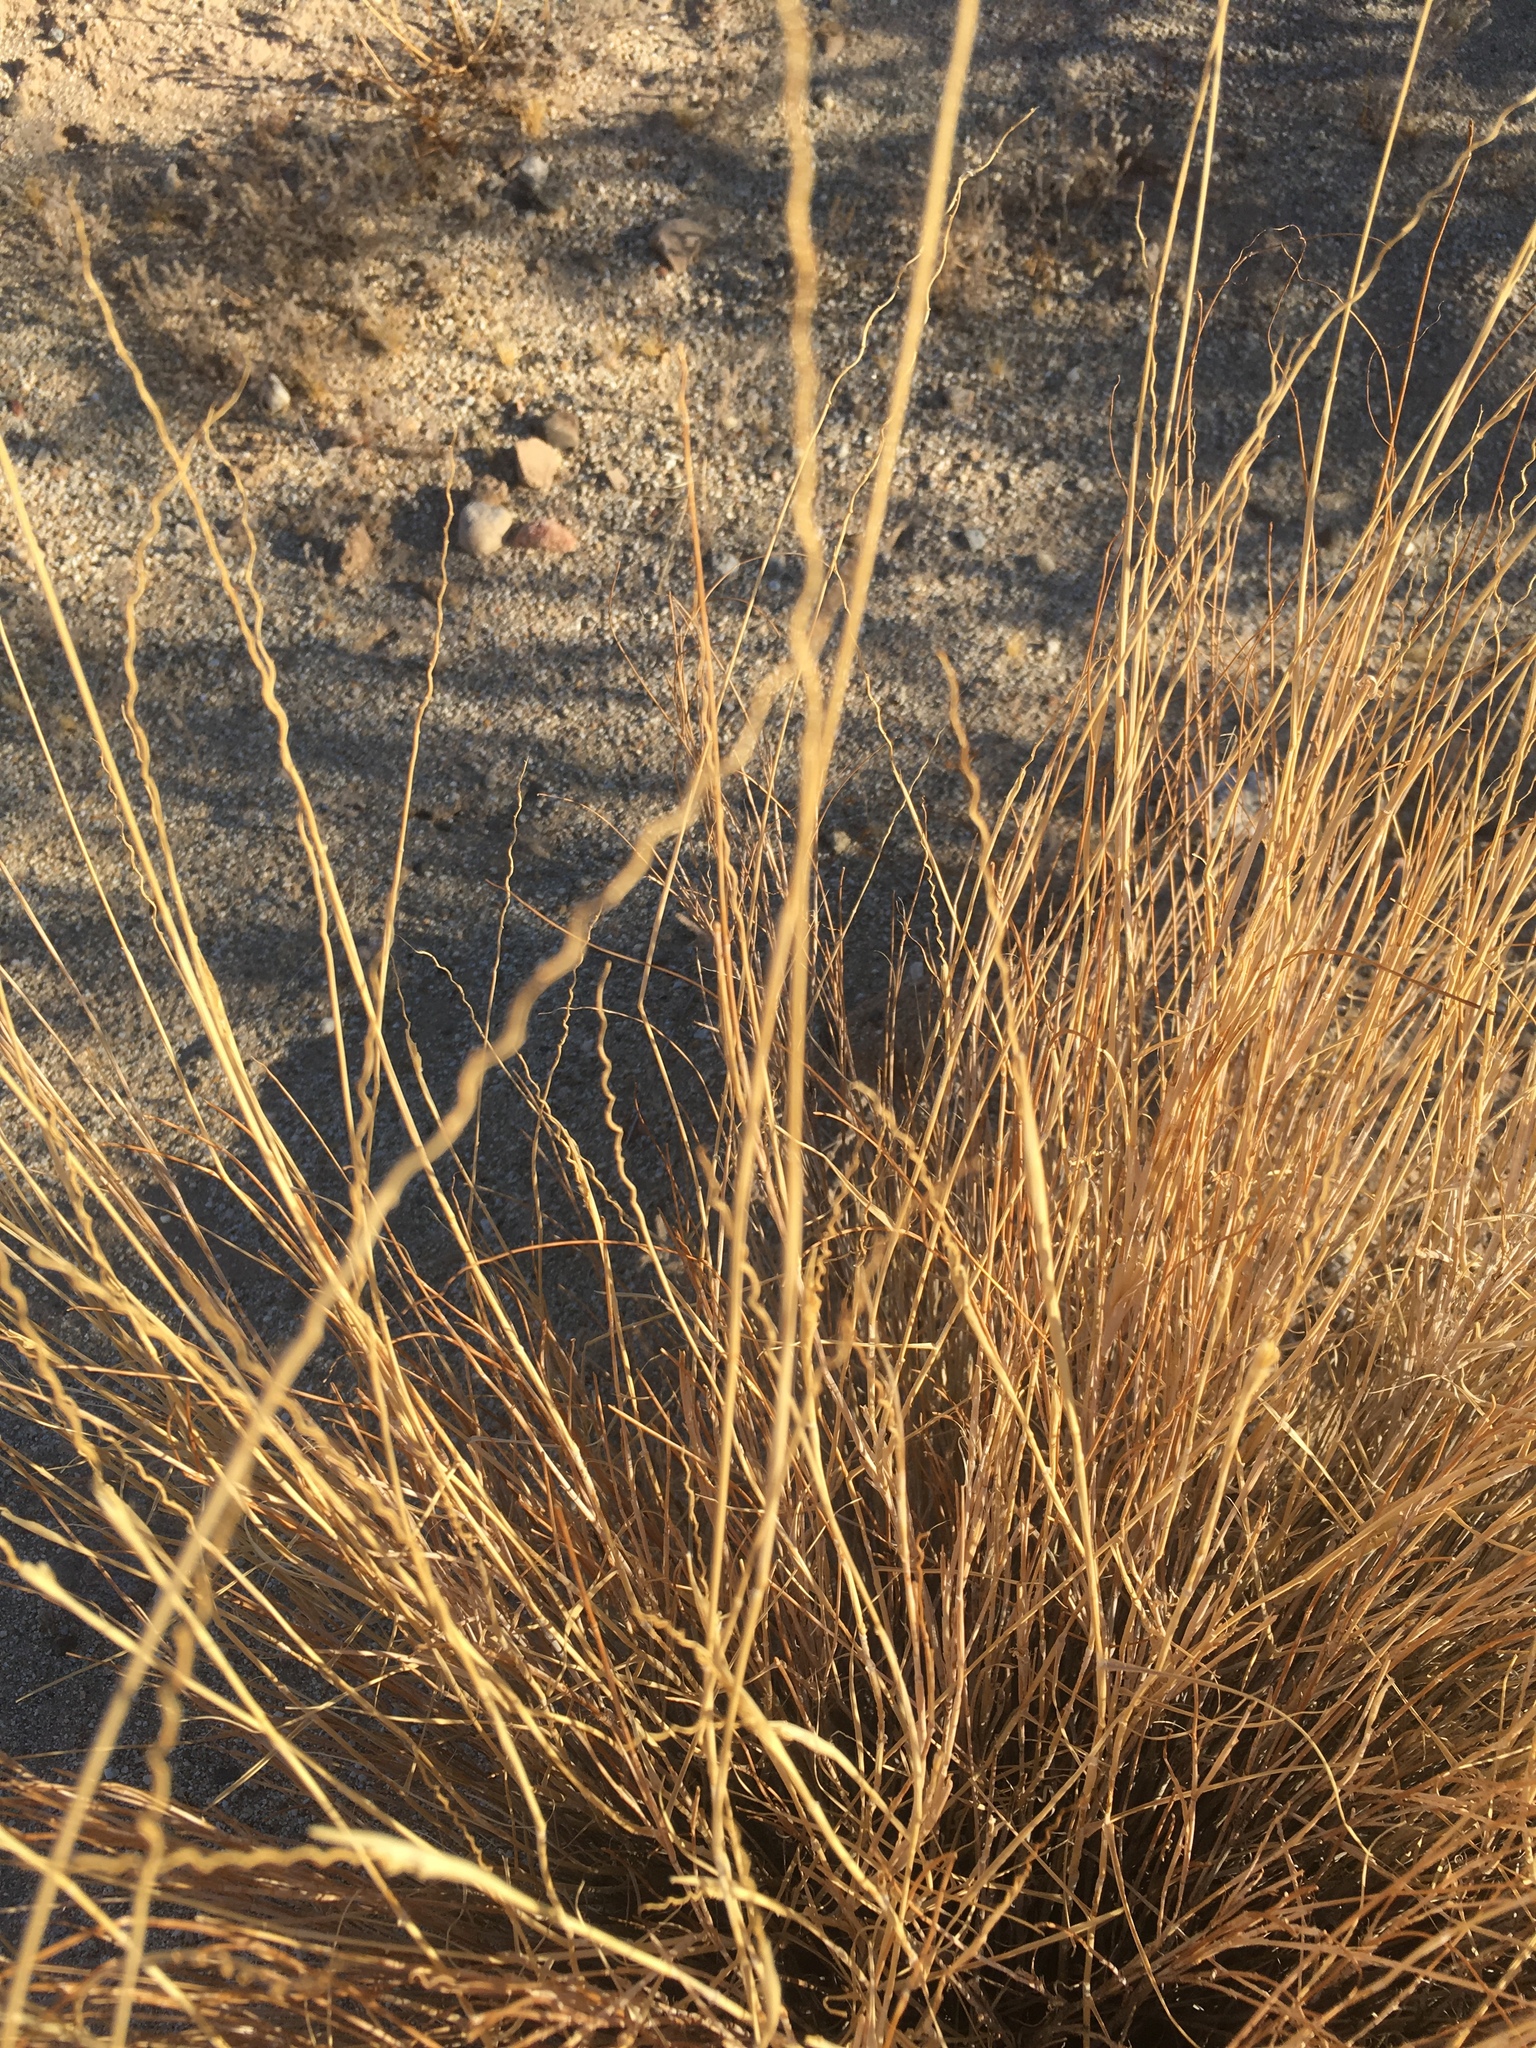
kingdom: Plantae
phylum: Tracheophyta
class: Liliopsida
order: Poales
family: Poaceae
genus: Hilaria
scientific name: Hilaria rigida
